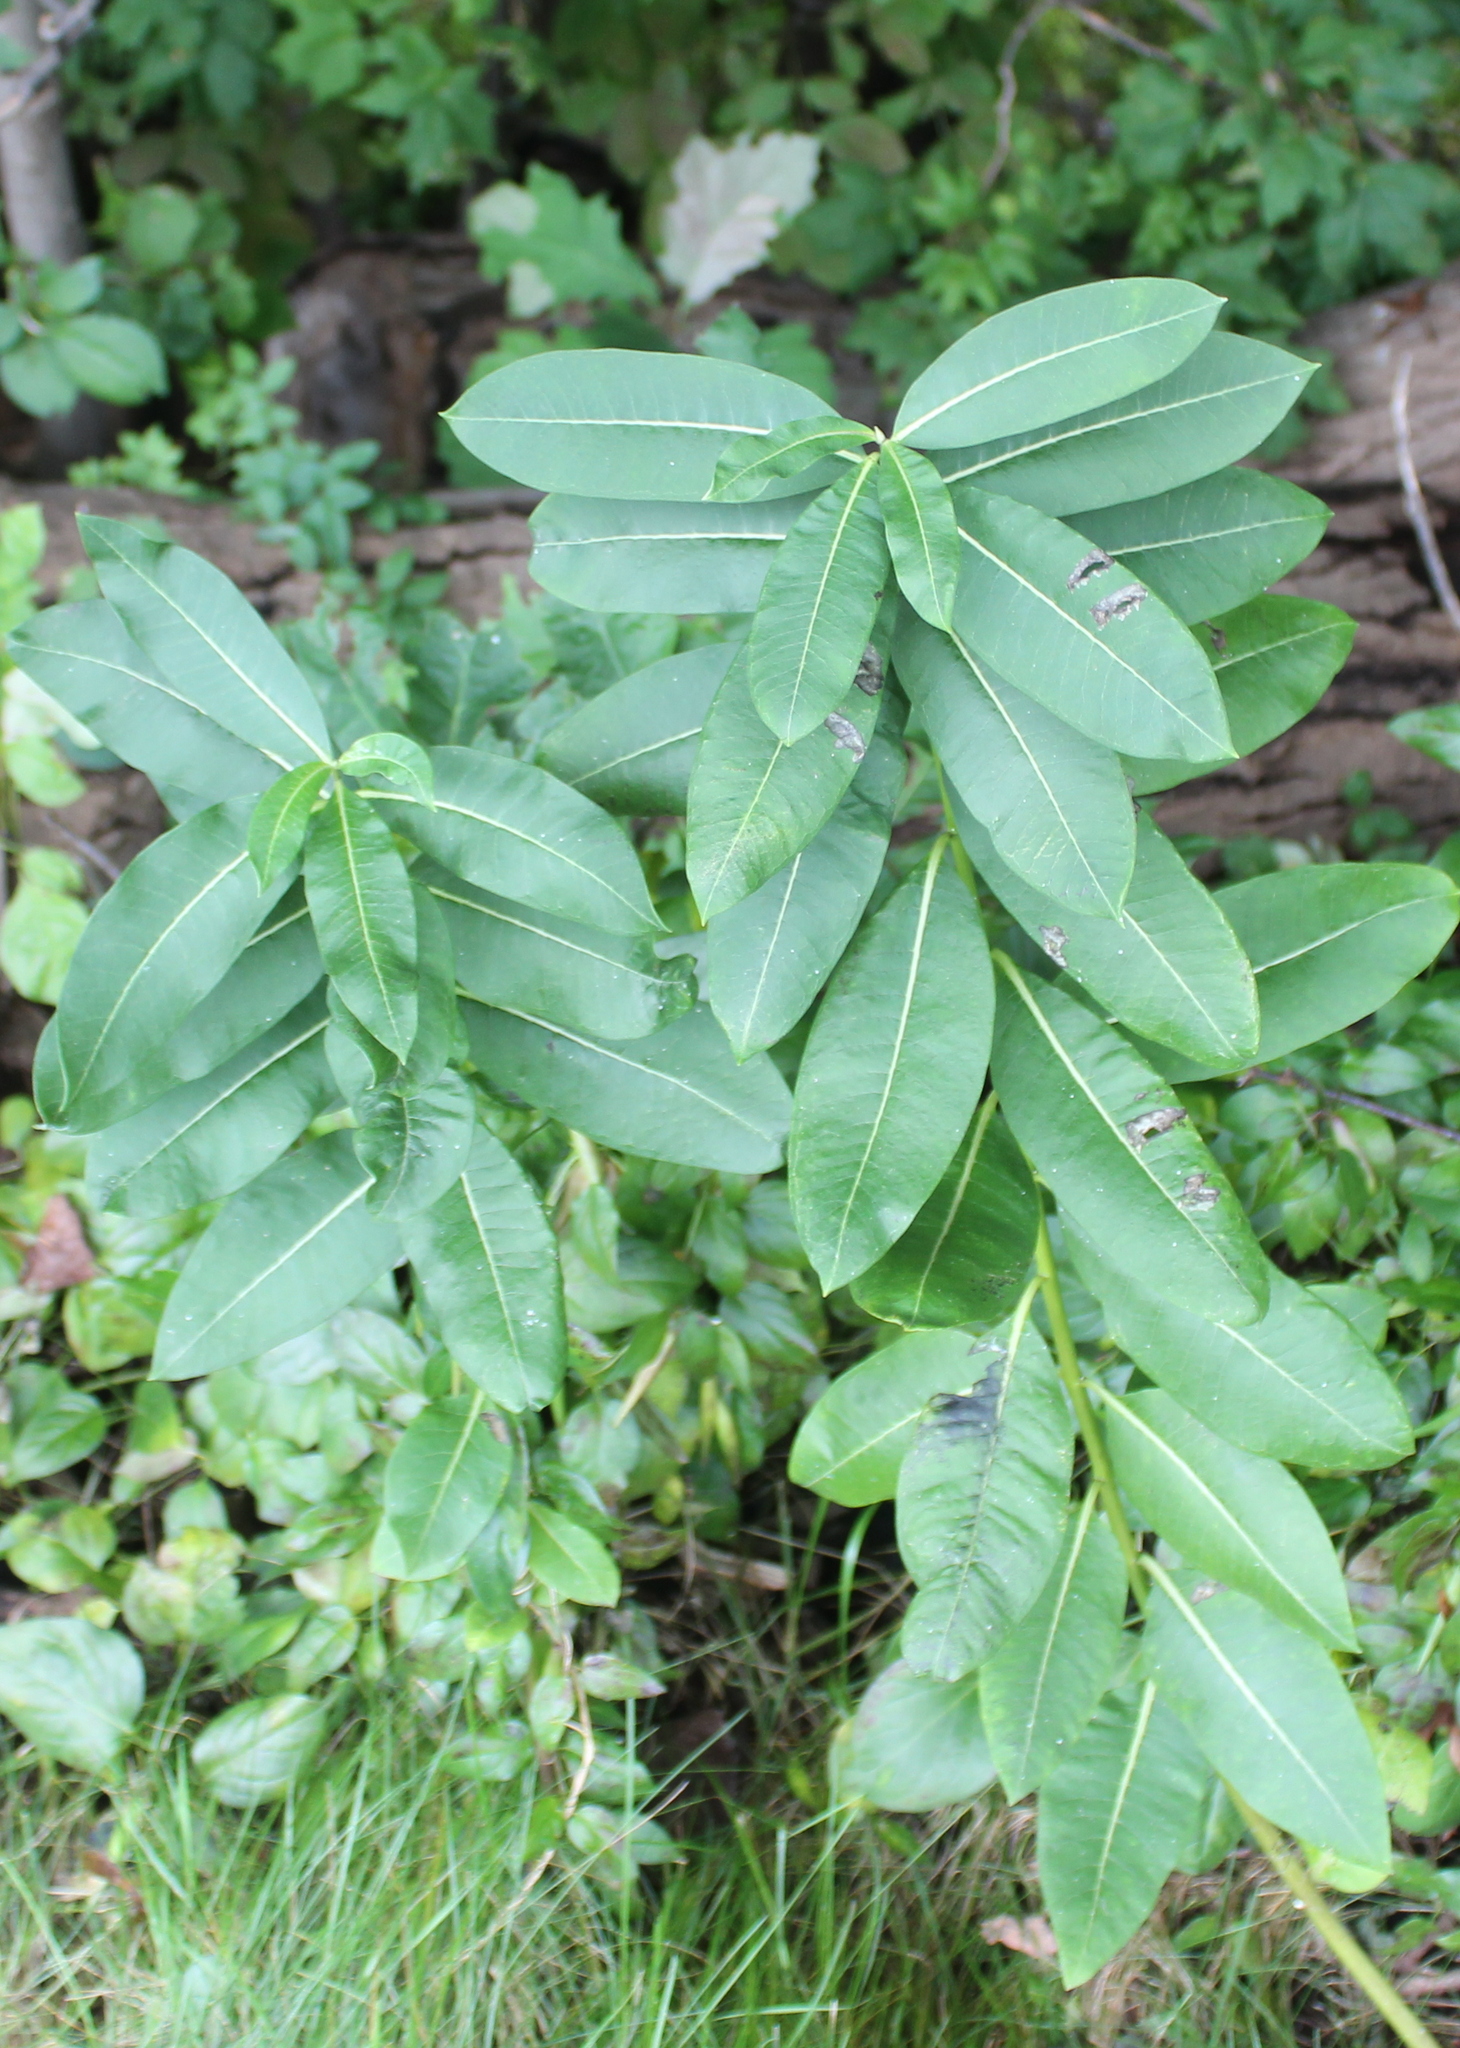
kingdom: Plantae
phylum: Tracheophyta
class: Magnoliopsida
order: Gentianales
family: Apocynaceae
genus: Asclepias
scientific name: Asclepias syriaca
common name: Common milkweed
